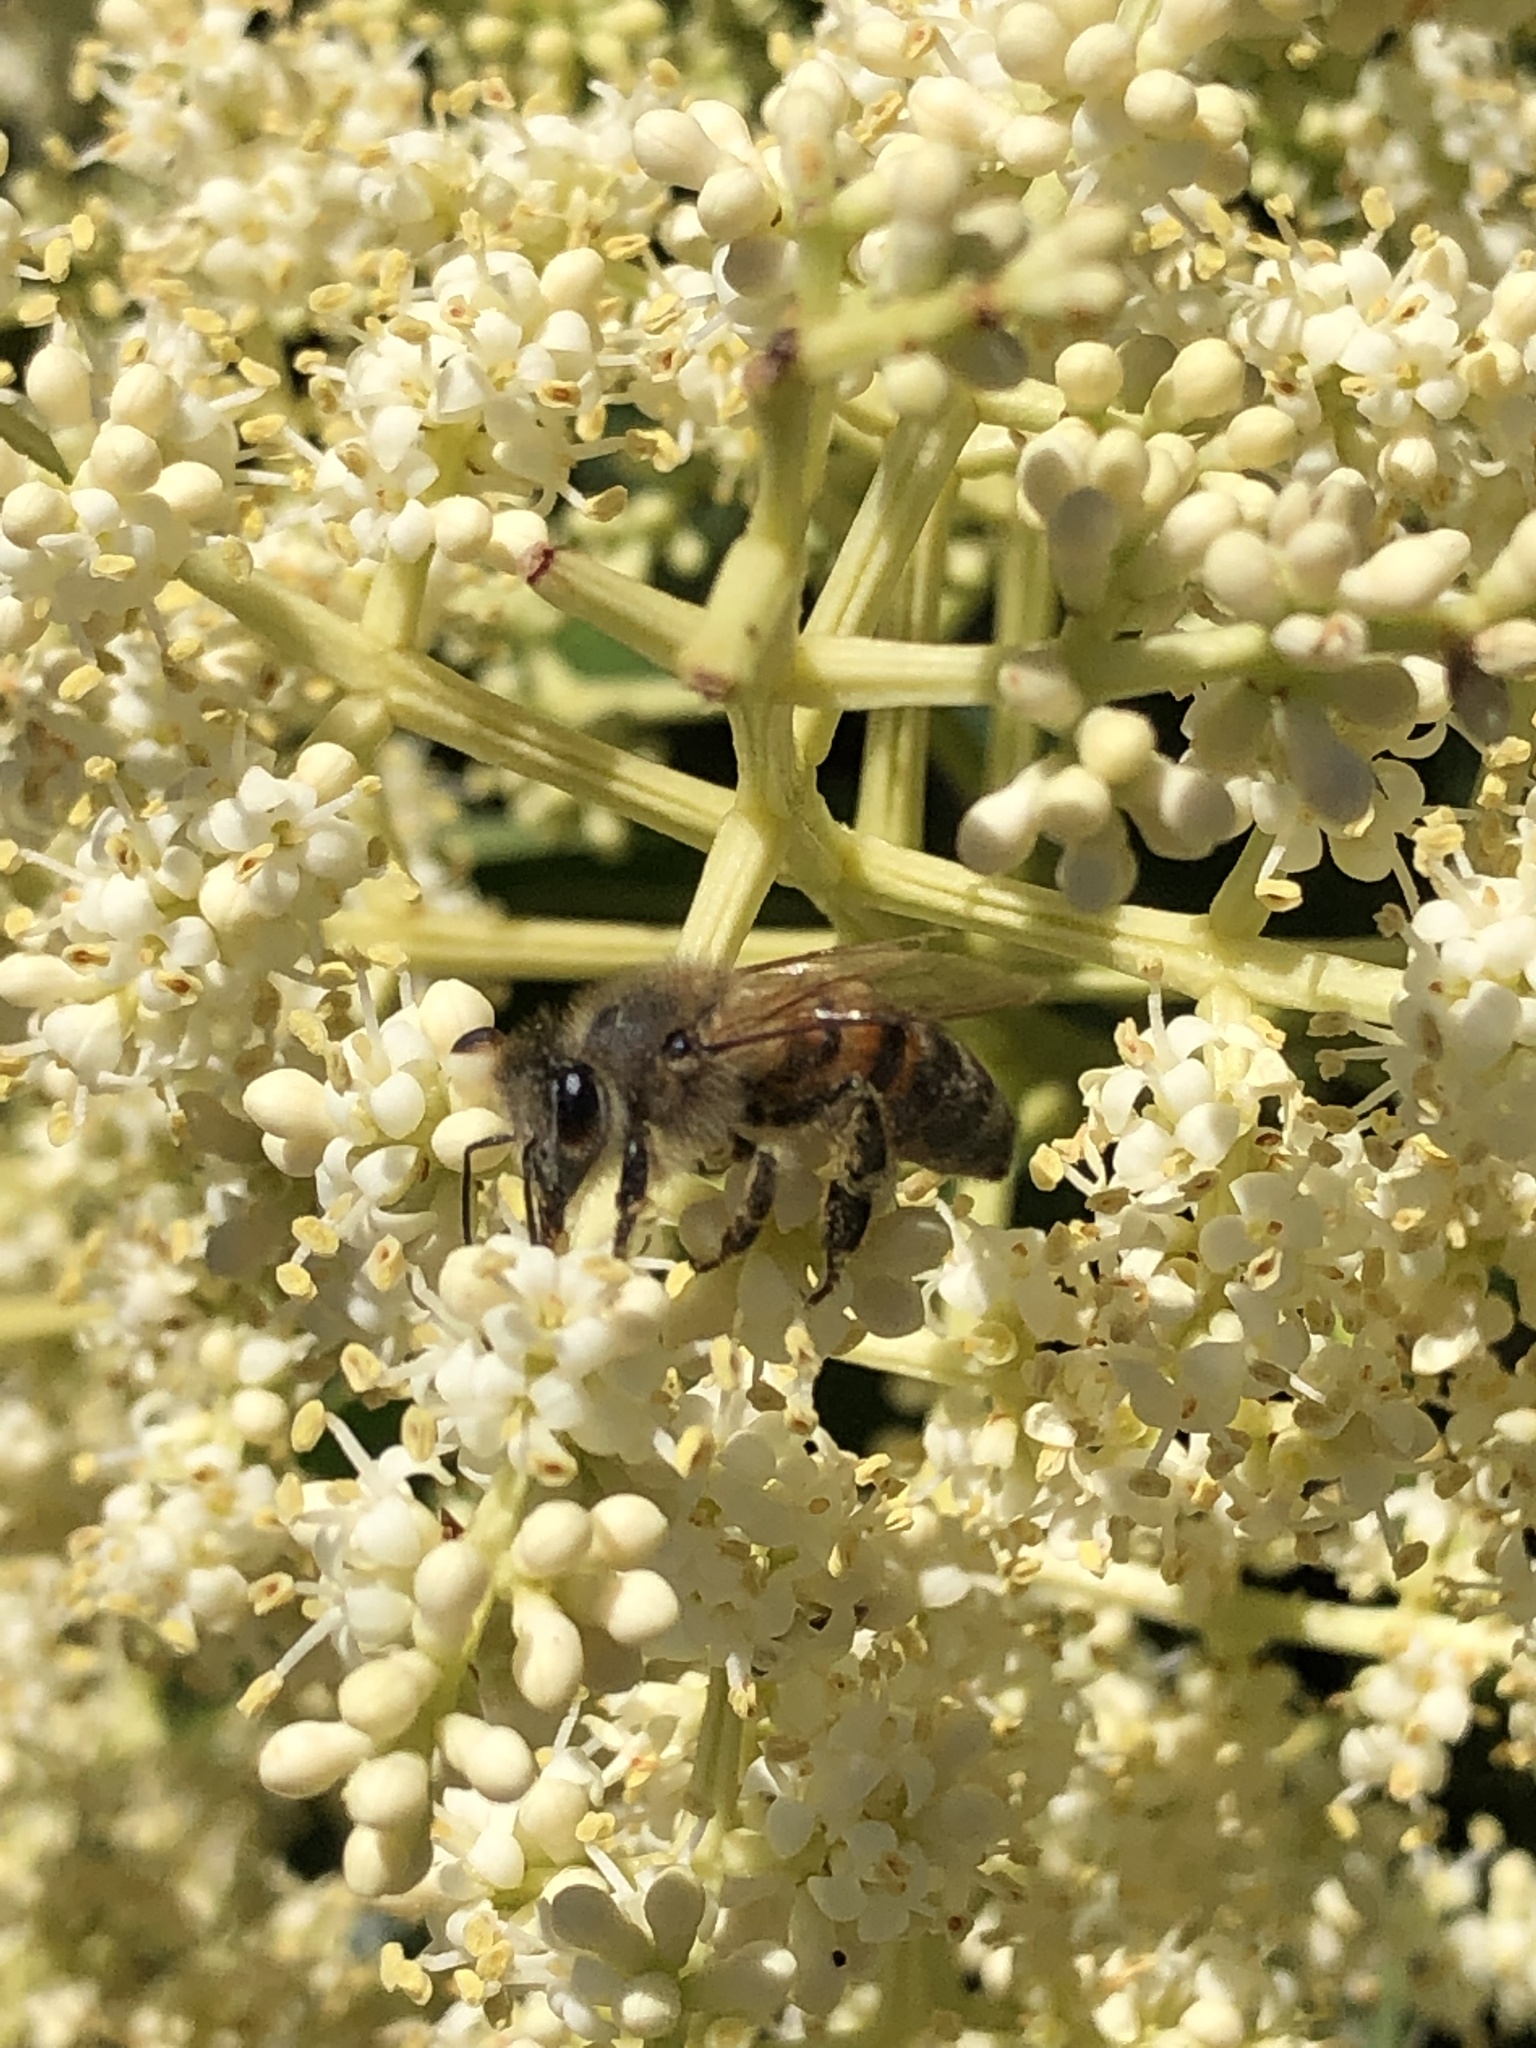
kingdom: Animalia
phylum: Arthropoda
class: Insecta
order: Hymenoptera
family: Apidae
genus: Apis
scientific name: Apis mellifera
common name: Honey bee
